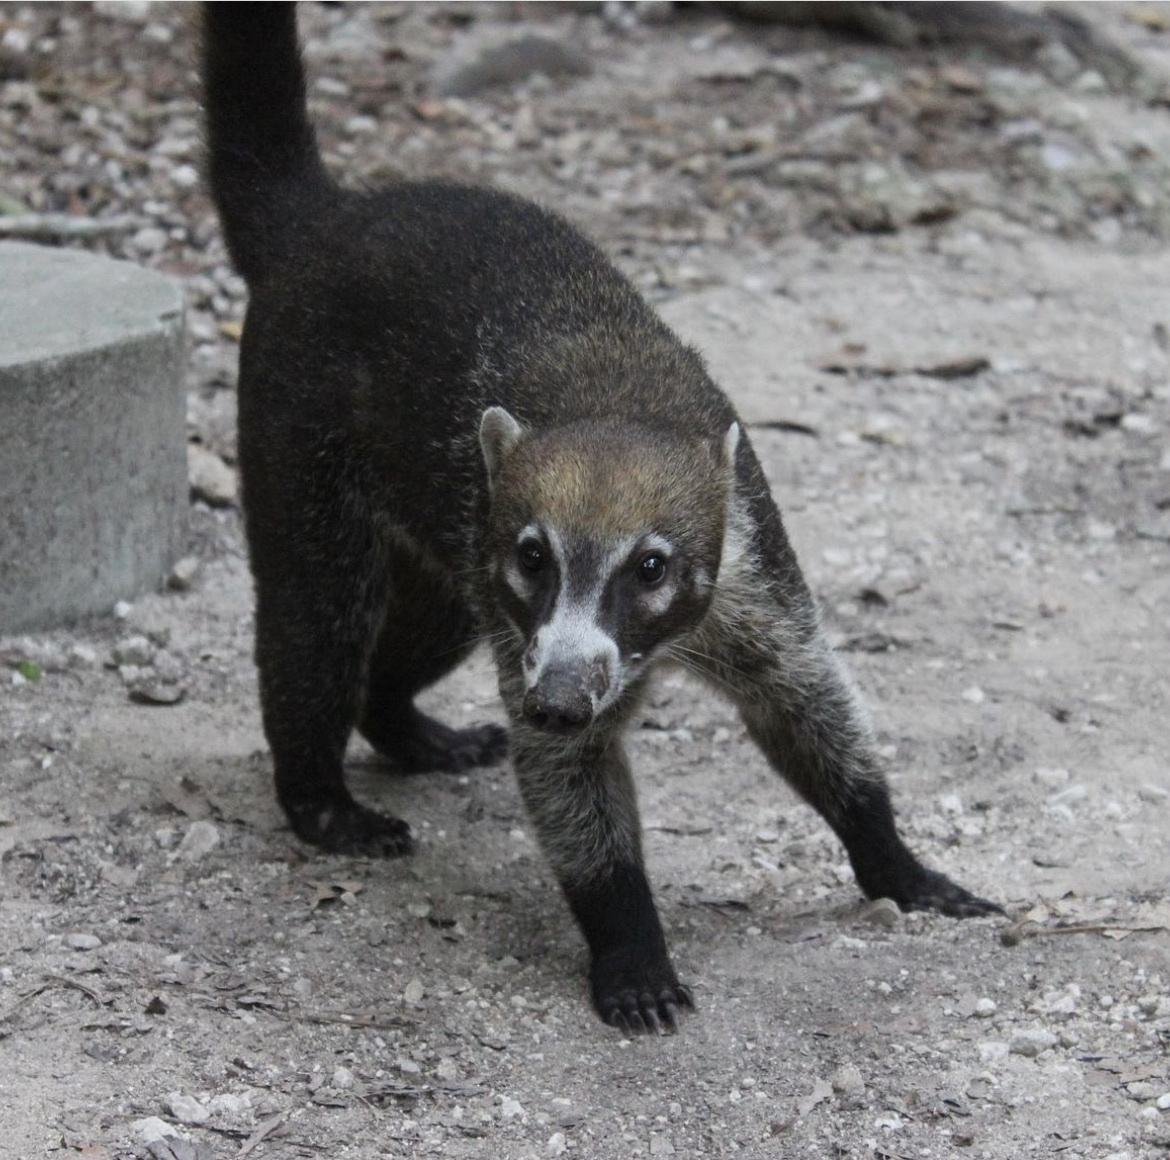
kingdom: Animalia
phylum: Chordata
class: Mammalia
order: Carnivora
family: Procyonidae
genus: Nasua
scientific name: Nasua narica
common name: White-nosed coati
